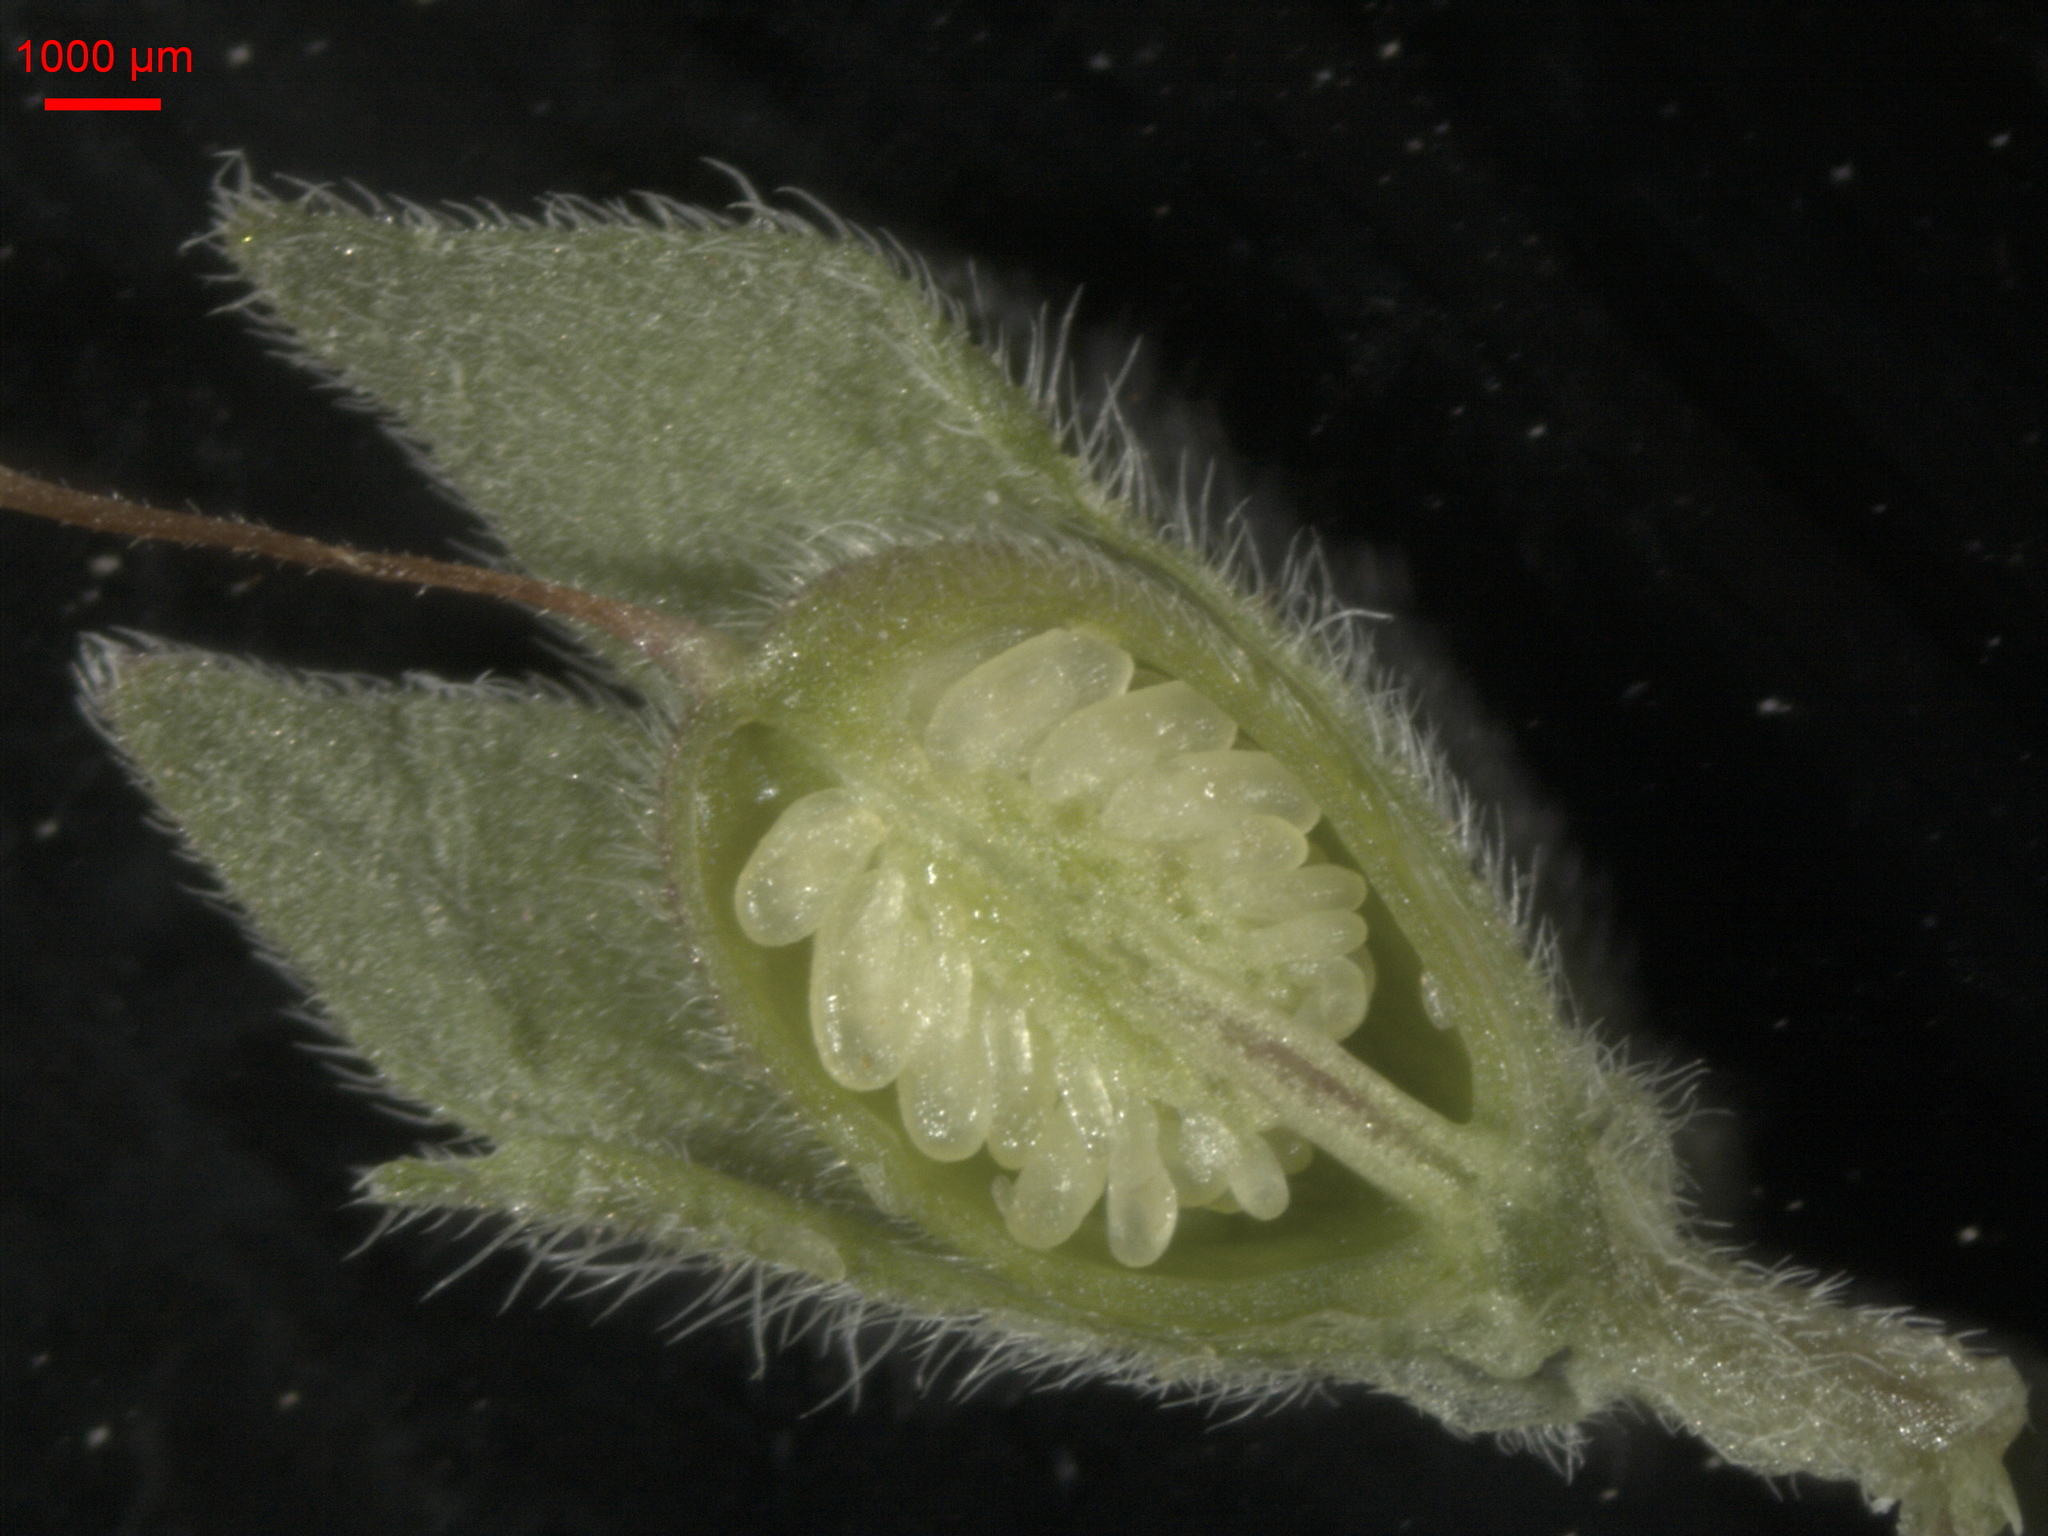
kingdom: Plantae
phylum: Tracheophyta
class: Magnoliopsida
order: Lamiales
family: Orobanchaceae
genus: Odontites
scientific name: Odontites vulgaris
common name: Broomrape
